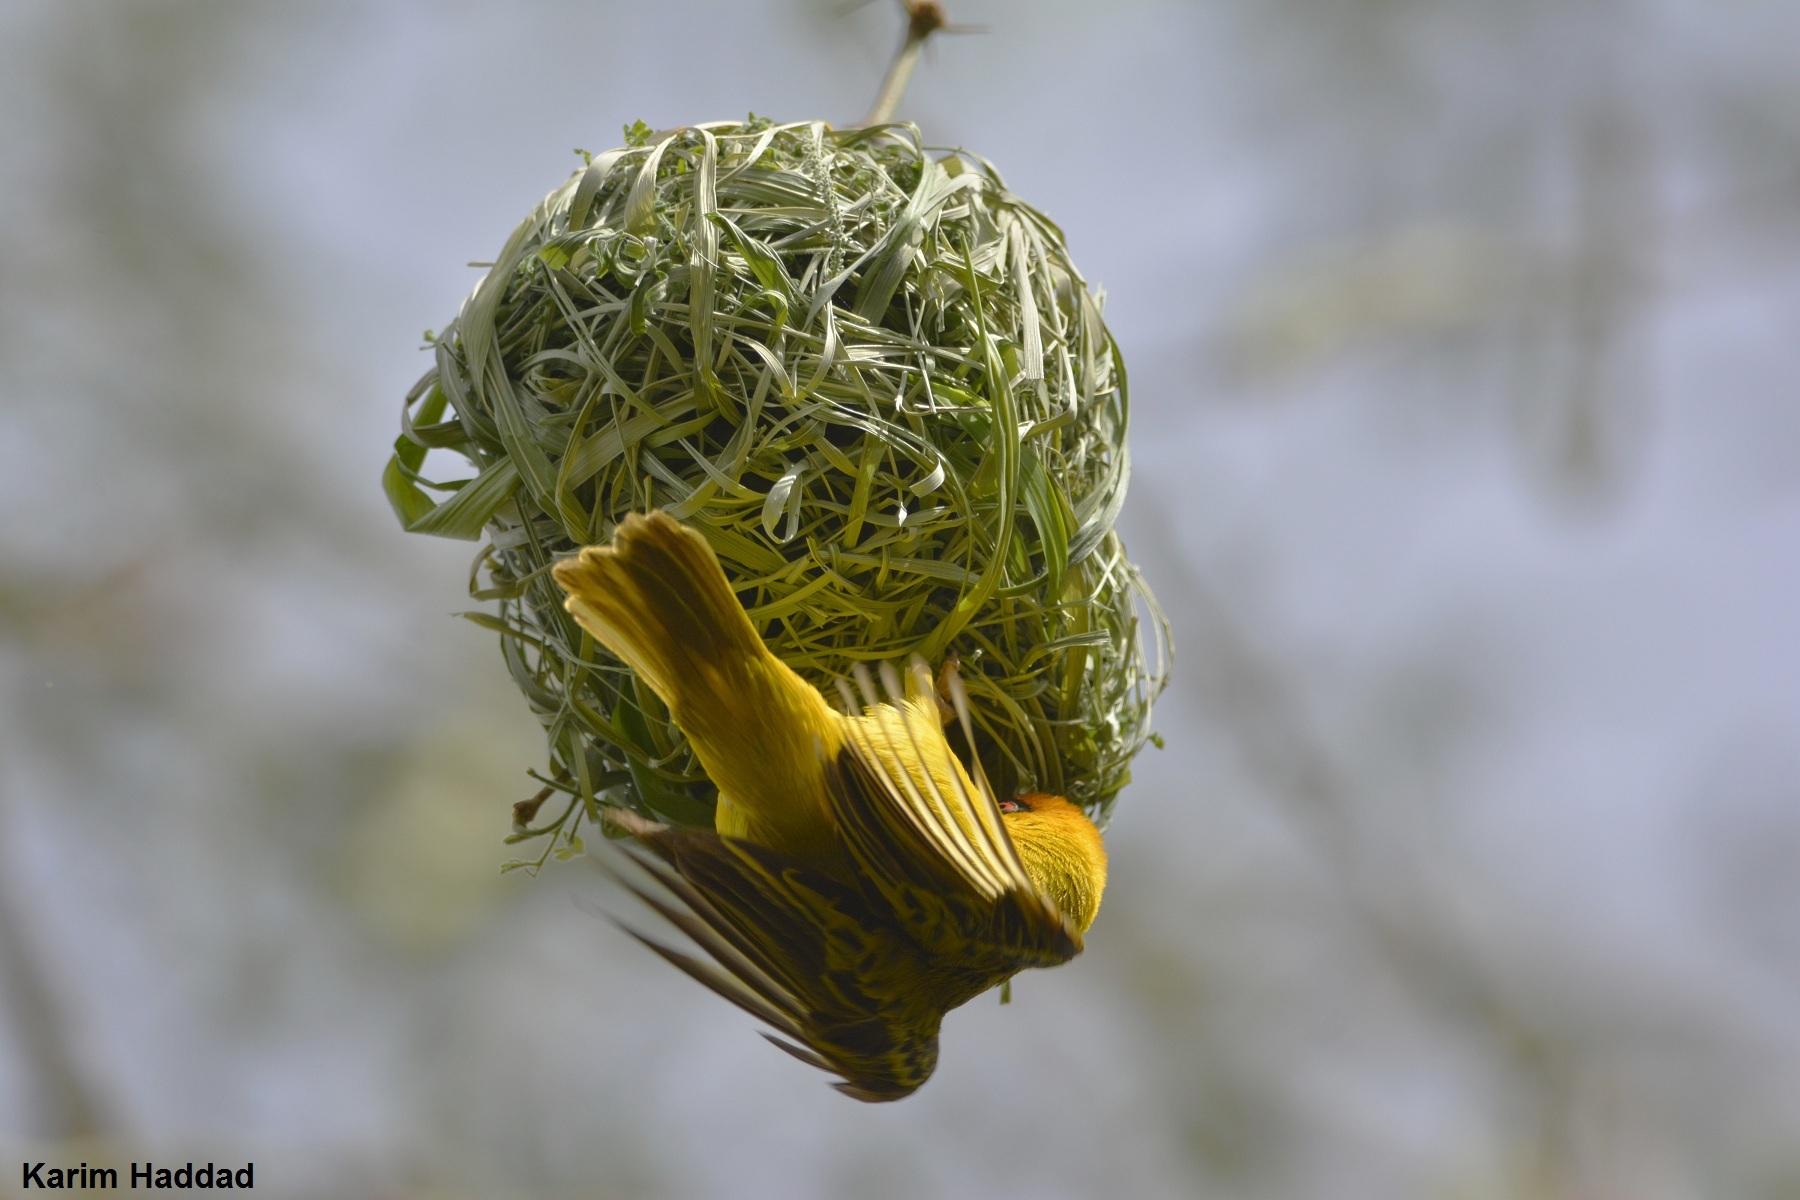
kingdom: Animalia
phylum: Chordata
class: Aves
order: Passeriformes
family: Ploceidae
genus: Ploceus
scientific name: Ploceus vitellinus
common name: Vitelline masked weaver
